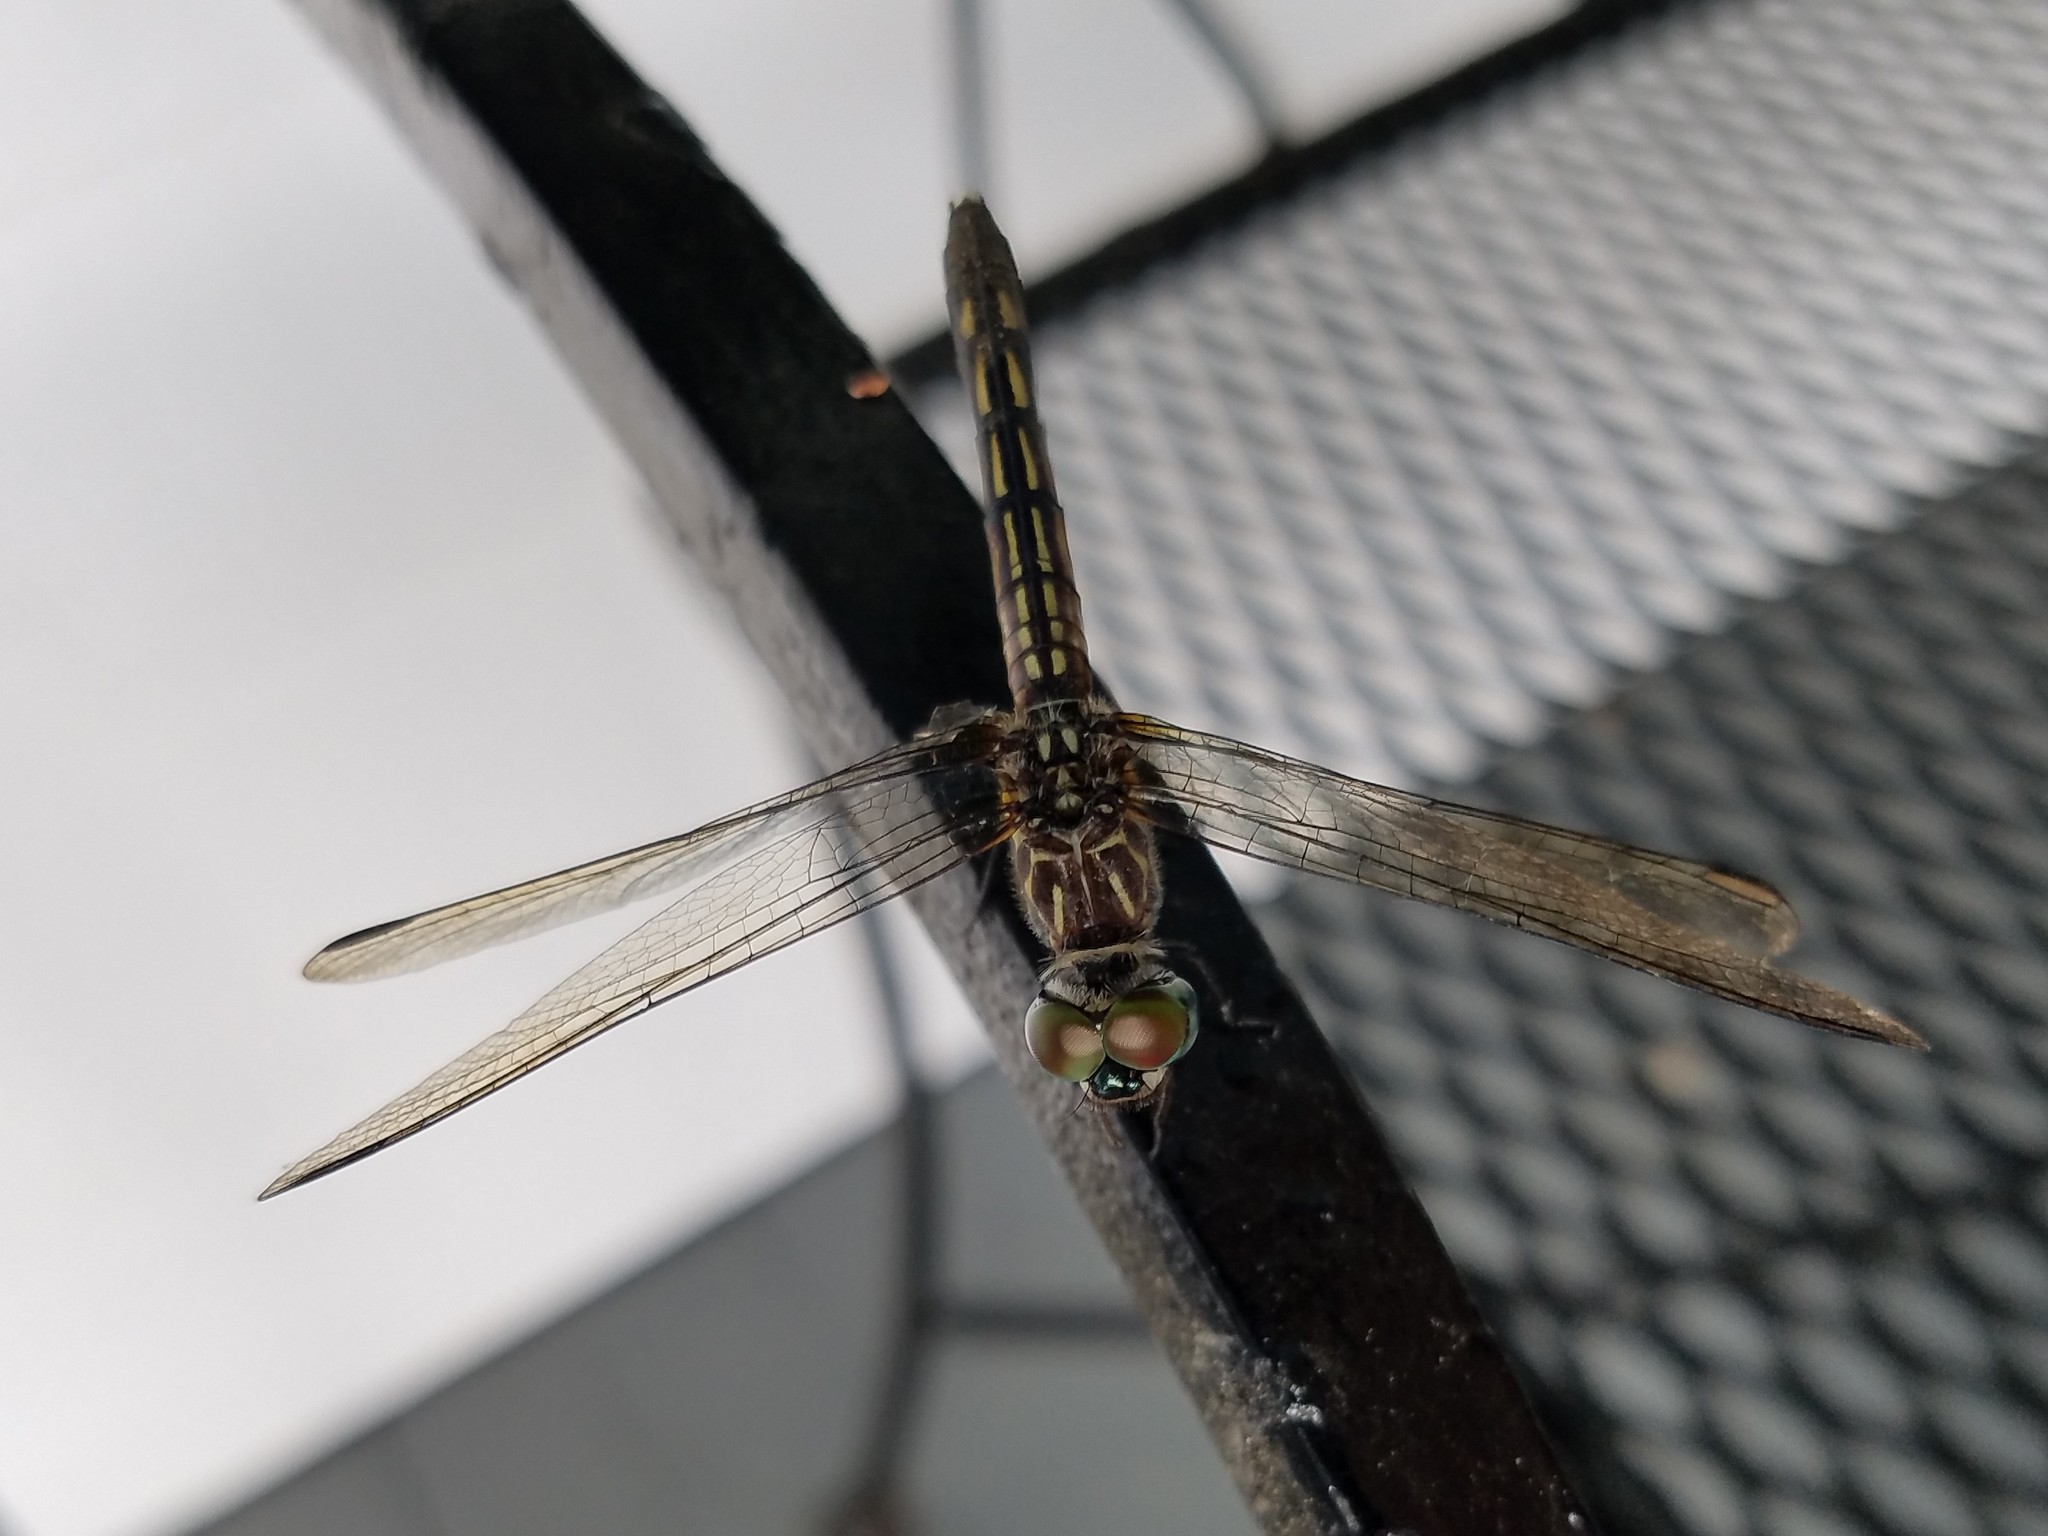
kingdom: Animalia
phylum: Arthropoda
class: Insecta
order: Odonata
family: Libellulidae
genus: Pachydiplax
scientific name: Pachydiplax longipennis
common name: Blue dasher
